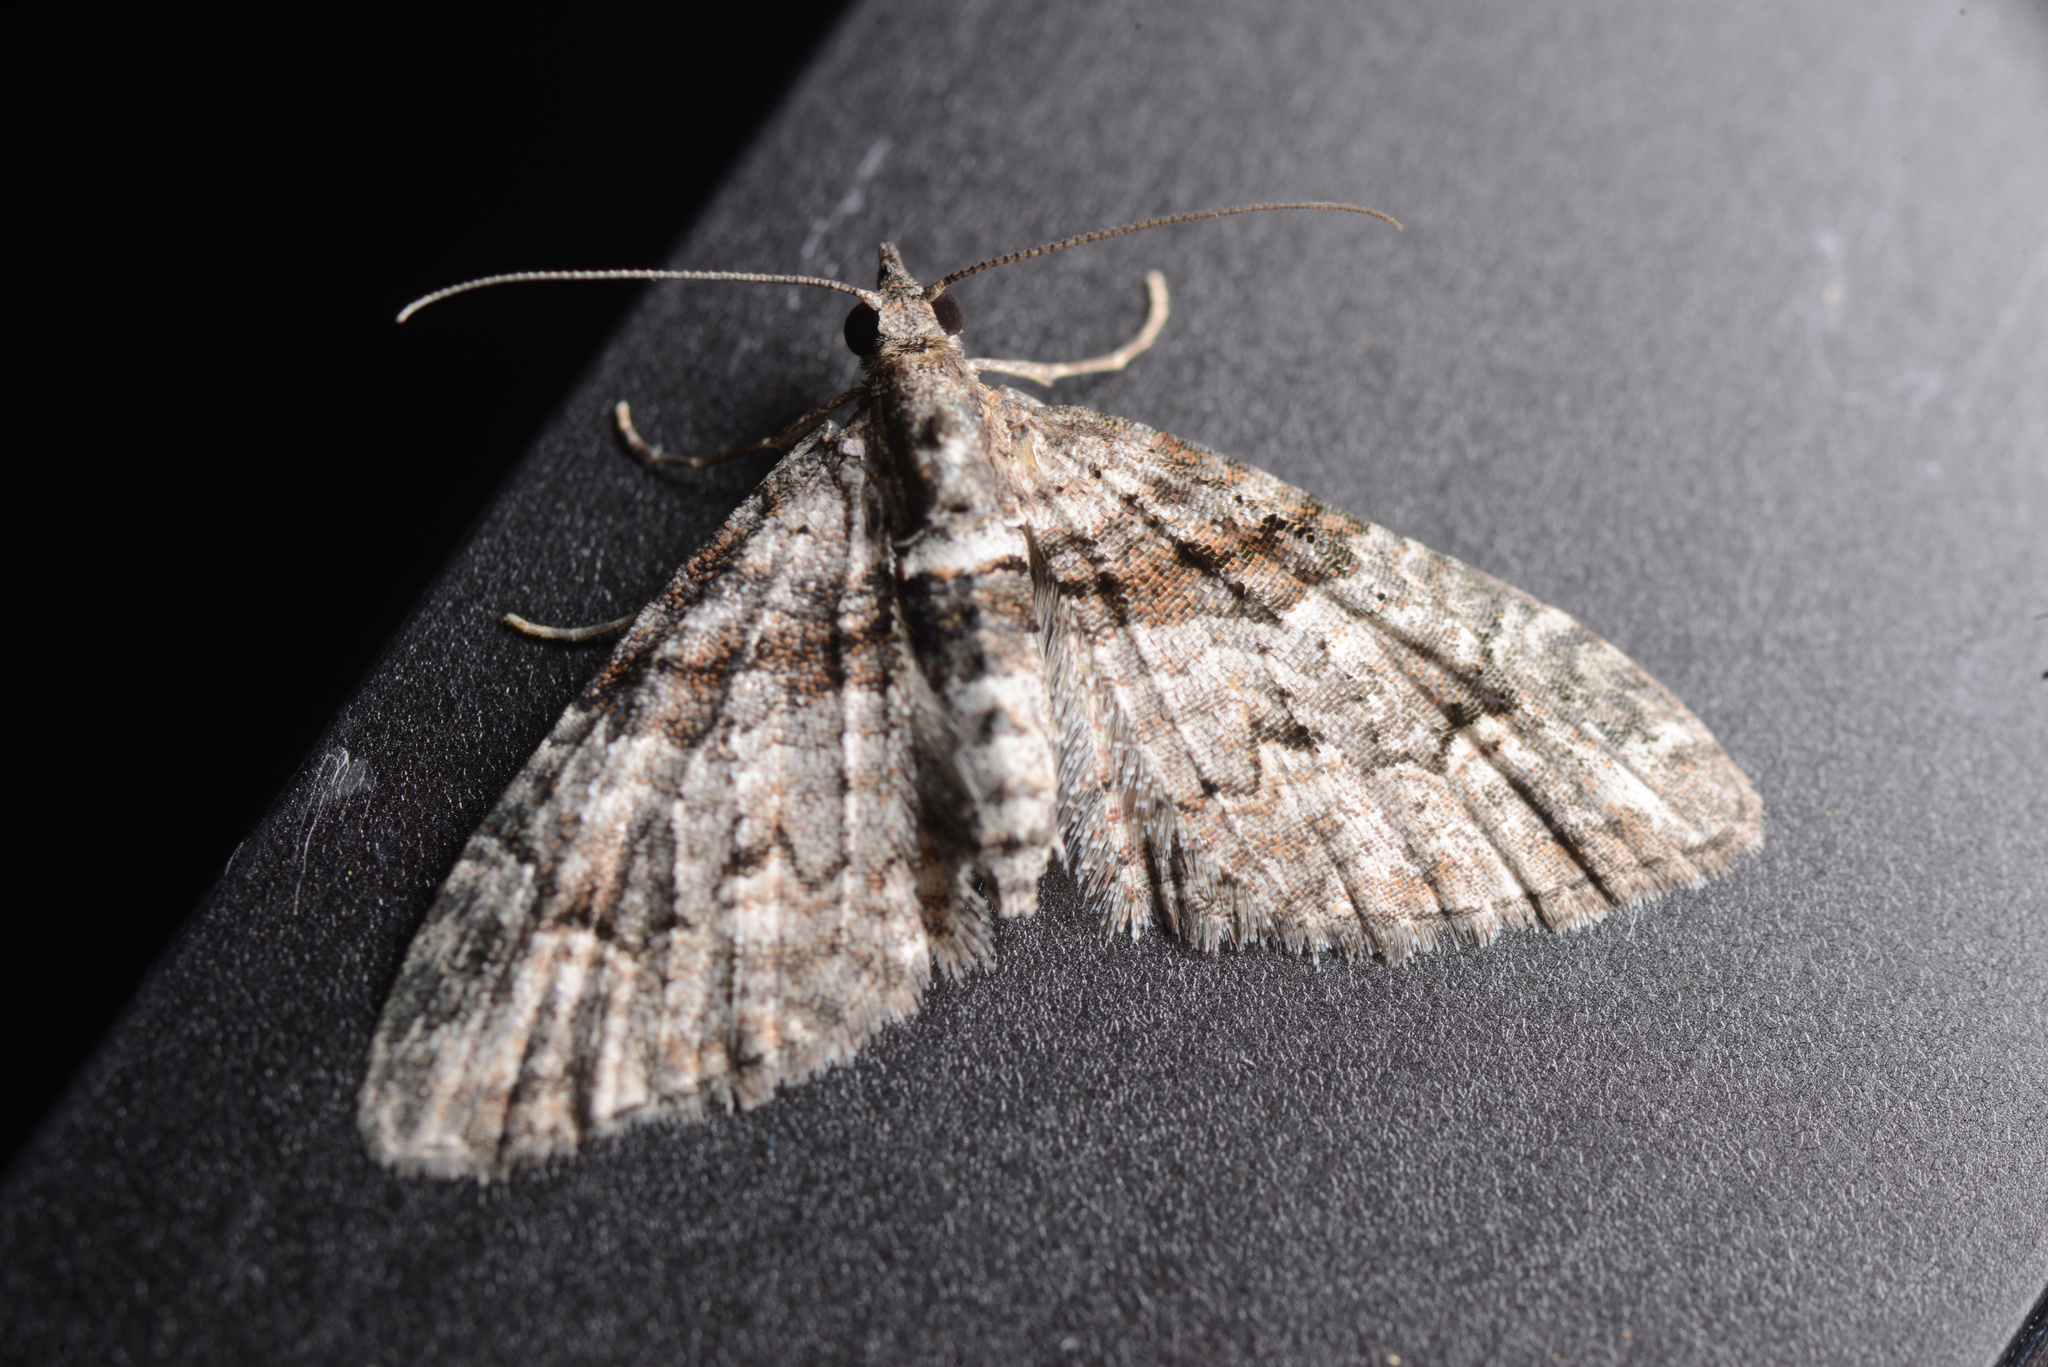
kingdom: Animalia
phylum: Arthropoda
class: Insecta
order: Lepidoptera
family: Geometridae
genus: Phrissogonus
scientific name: Phrissogonus laticostata
